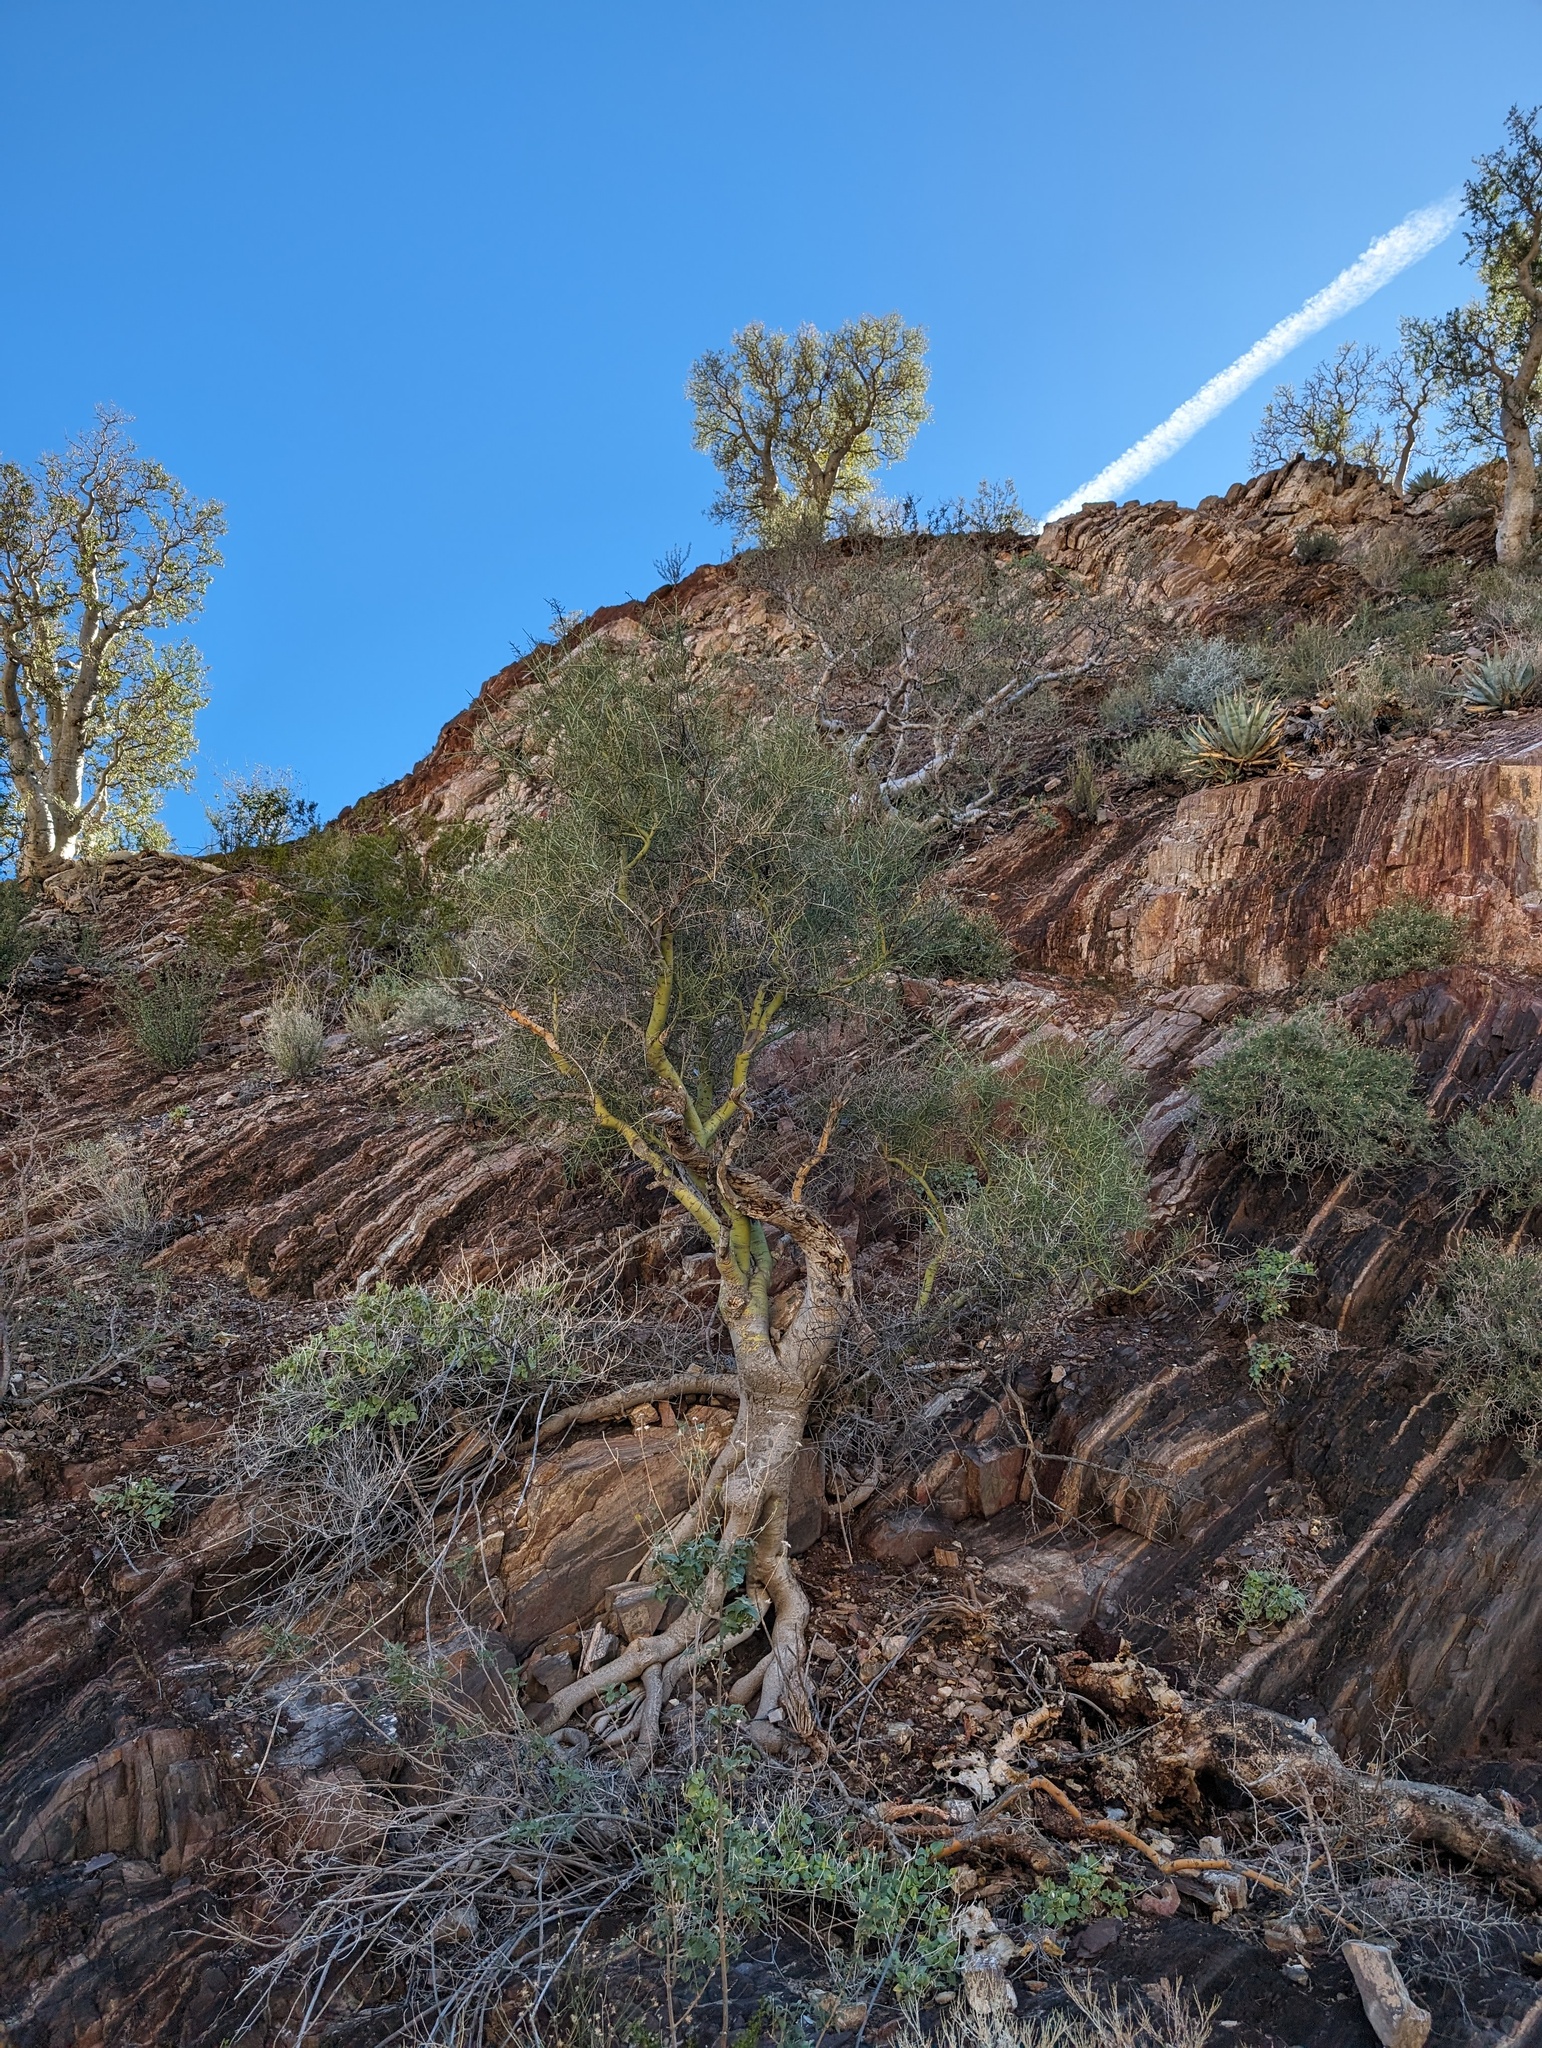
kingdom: Plantae
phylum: Tracheophyta
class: Magnoliopsida
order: Fabales
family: Fabaceae
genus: Parkinsonia
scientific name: Parkinsonia microphylla
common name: Yellow paloverde
